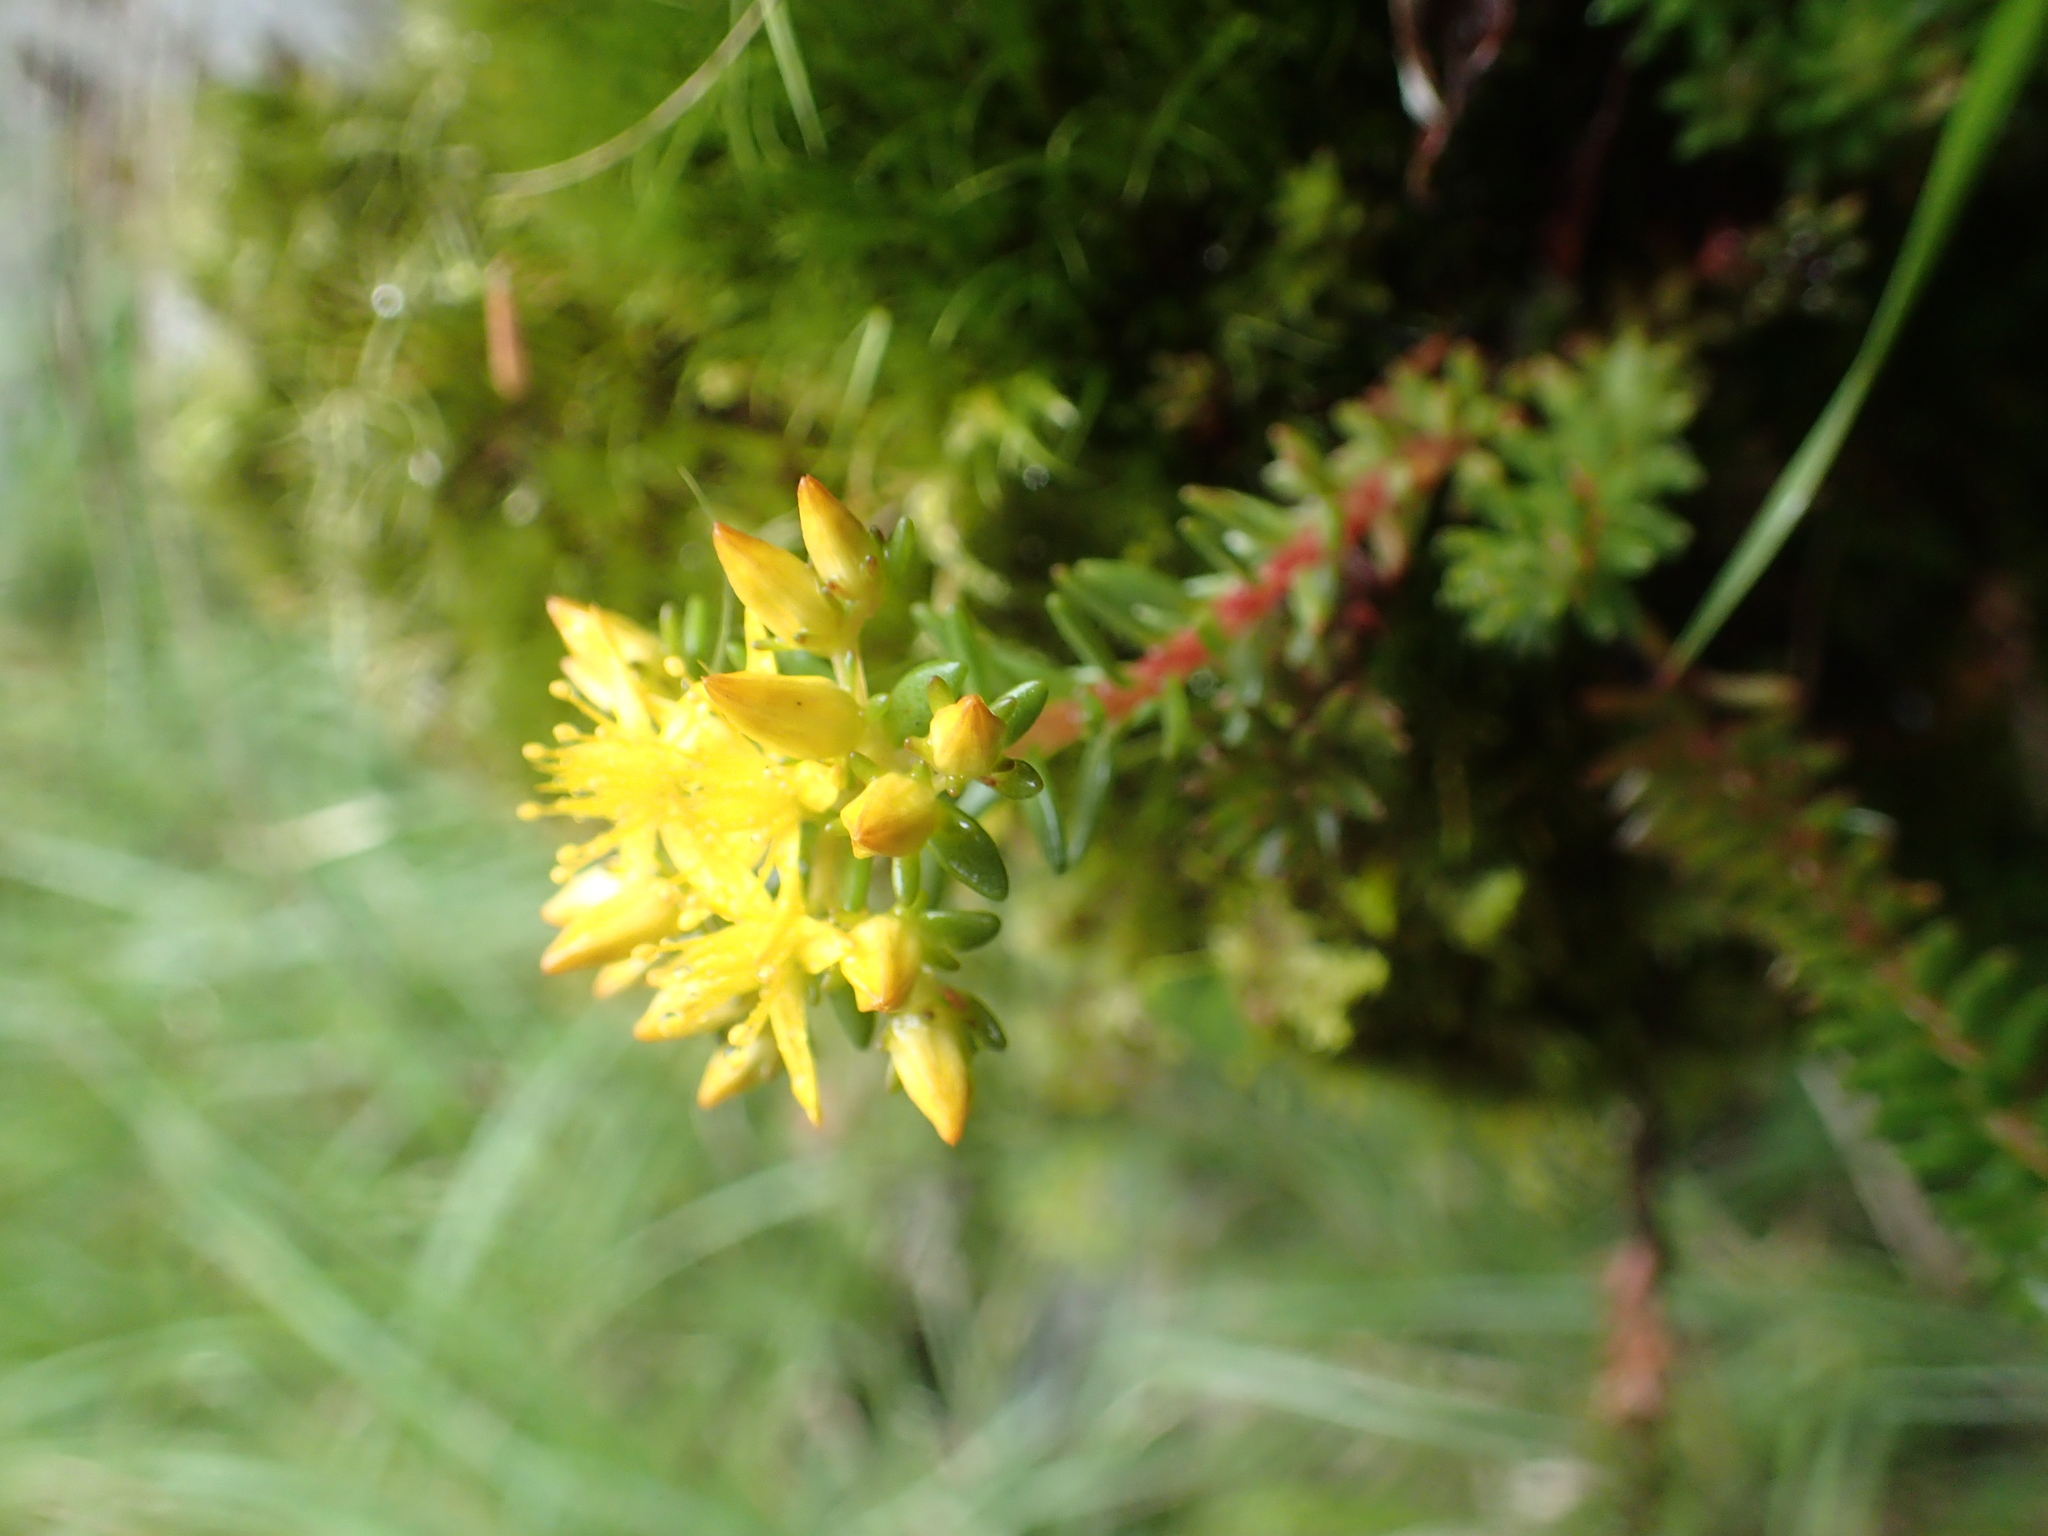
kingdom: Plantae
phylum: Tracheophyta
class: Magnoliopsida
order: Saxifragales
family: Crassulaceae
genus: Sedum
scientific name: Sedum morrisonense
